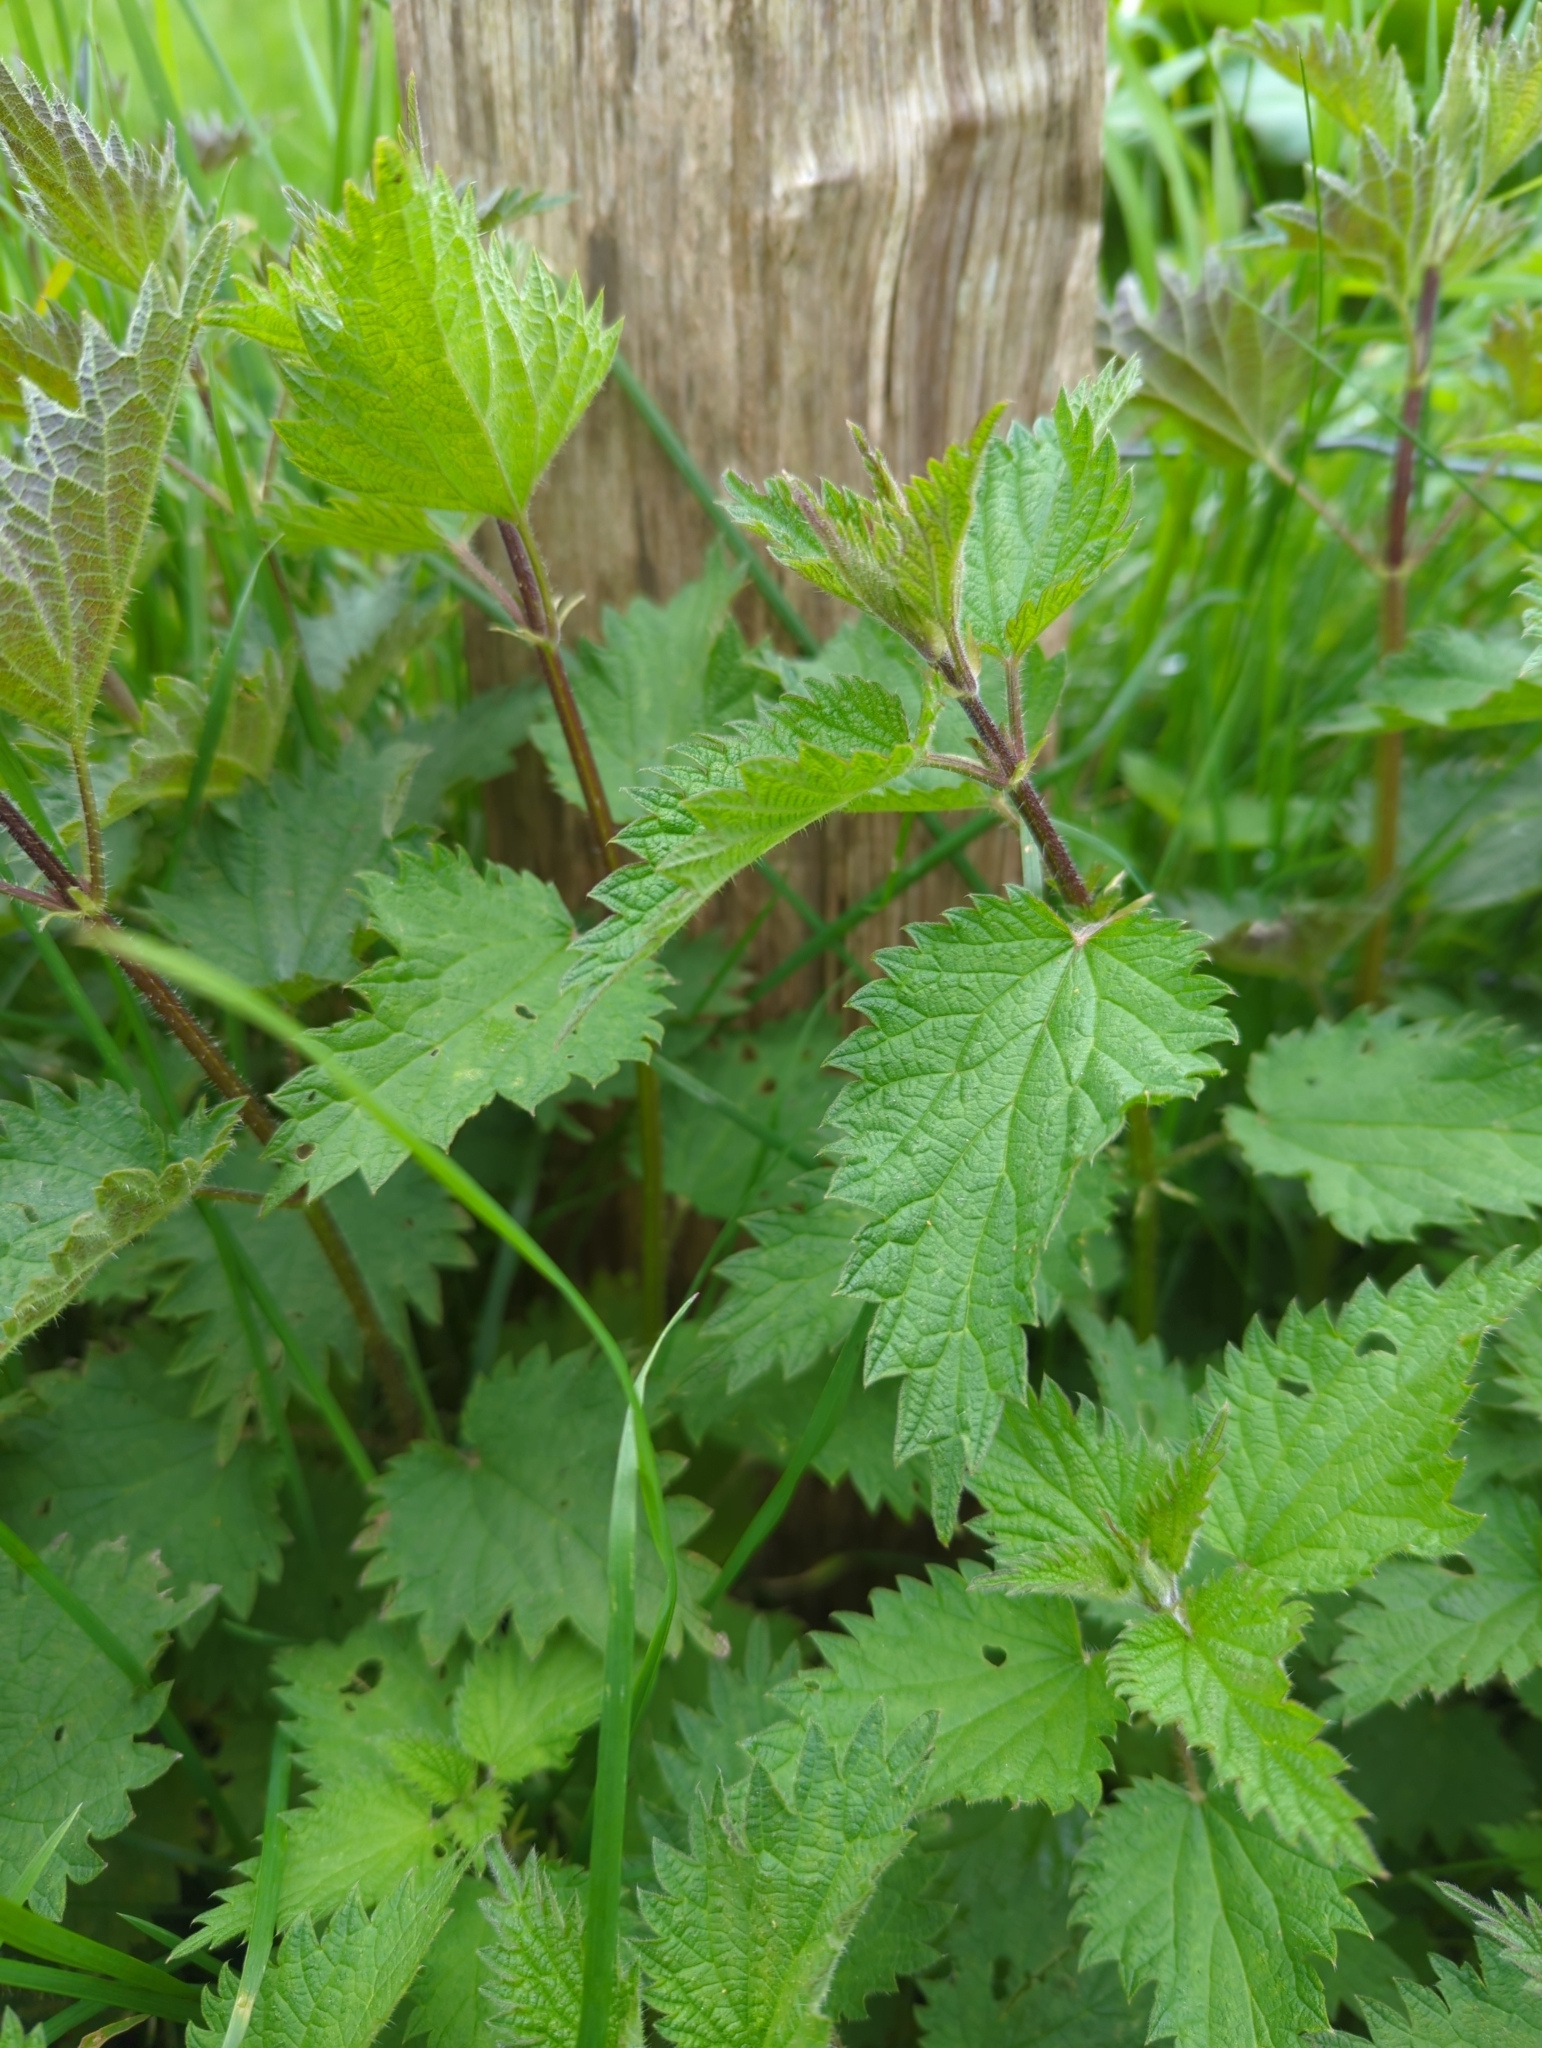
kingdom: Plantae
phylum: Tracheophyta
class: Magnoliopsida
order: Rosales
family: Urticaceae
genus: Urtica
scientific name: Urtica dioica
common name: Common nettle
